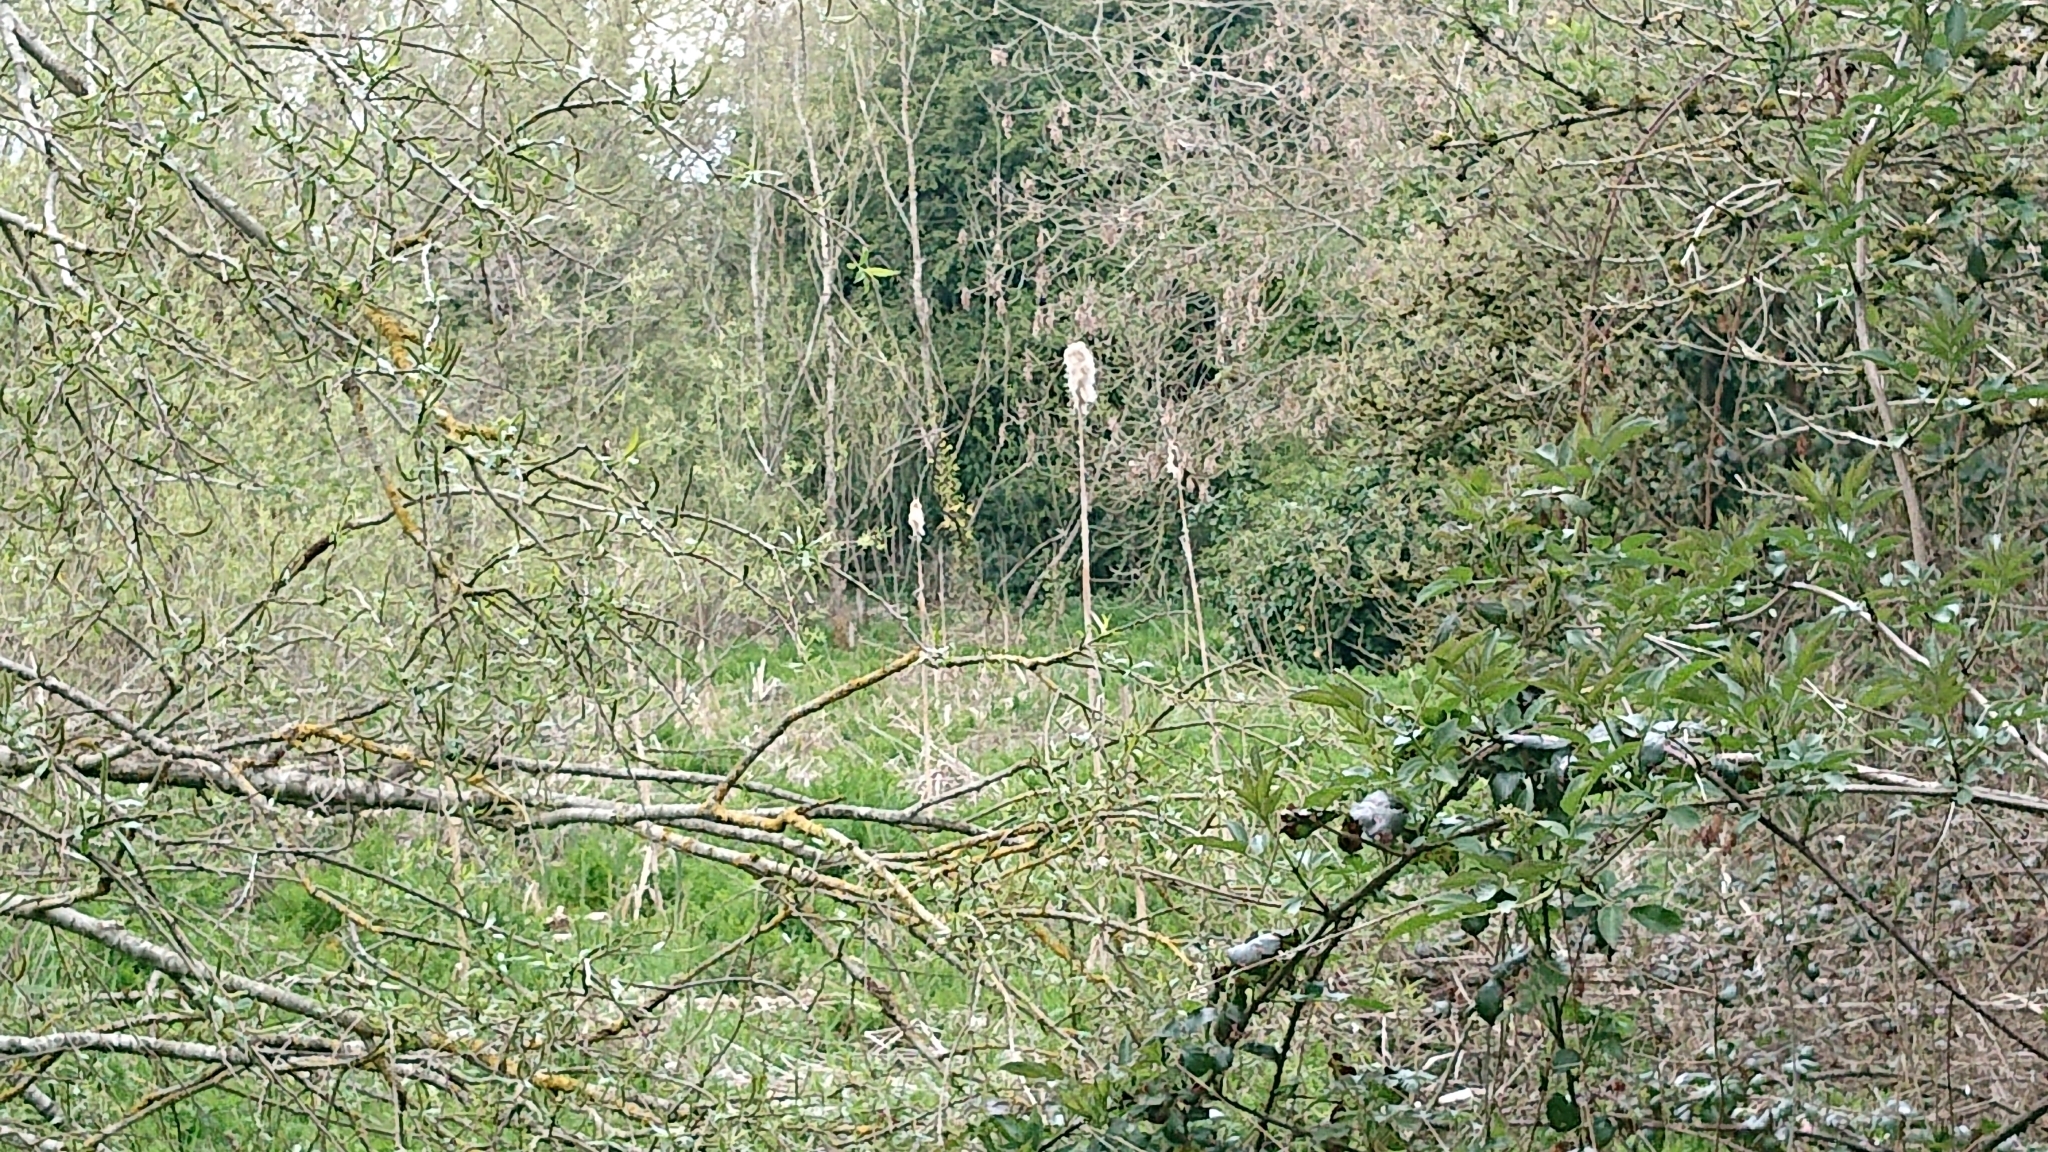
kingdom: Plantae
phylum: Tracheophyta
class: Liliopsida
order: Poales
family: Typhaceae
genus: Typha
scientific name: Typha latifolia
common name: Broadleaf cattail
